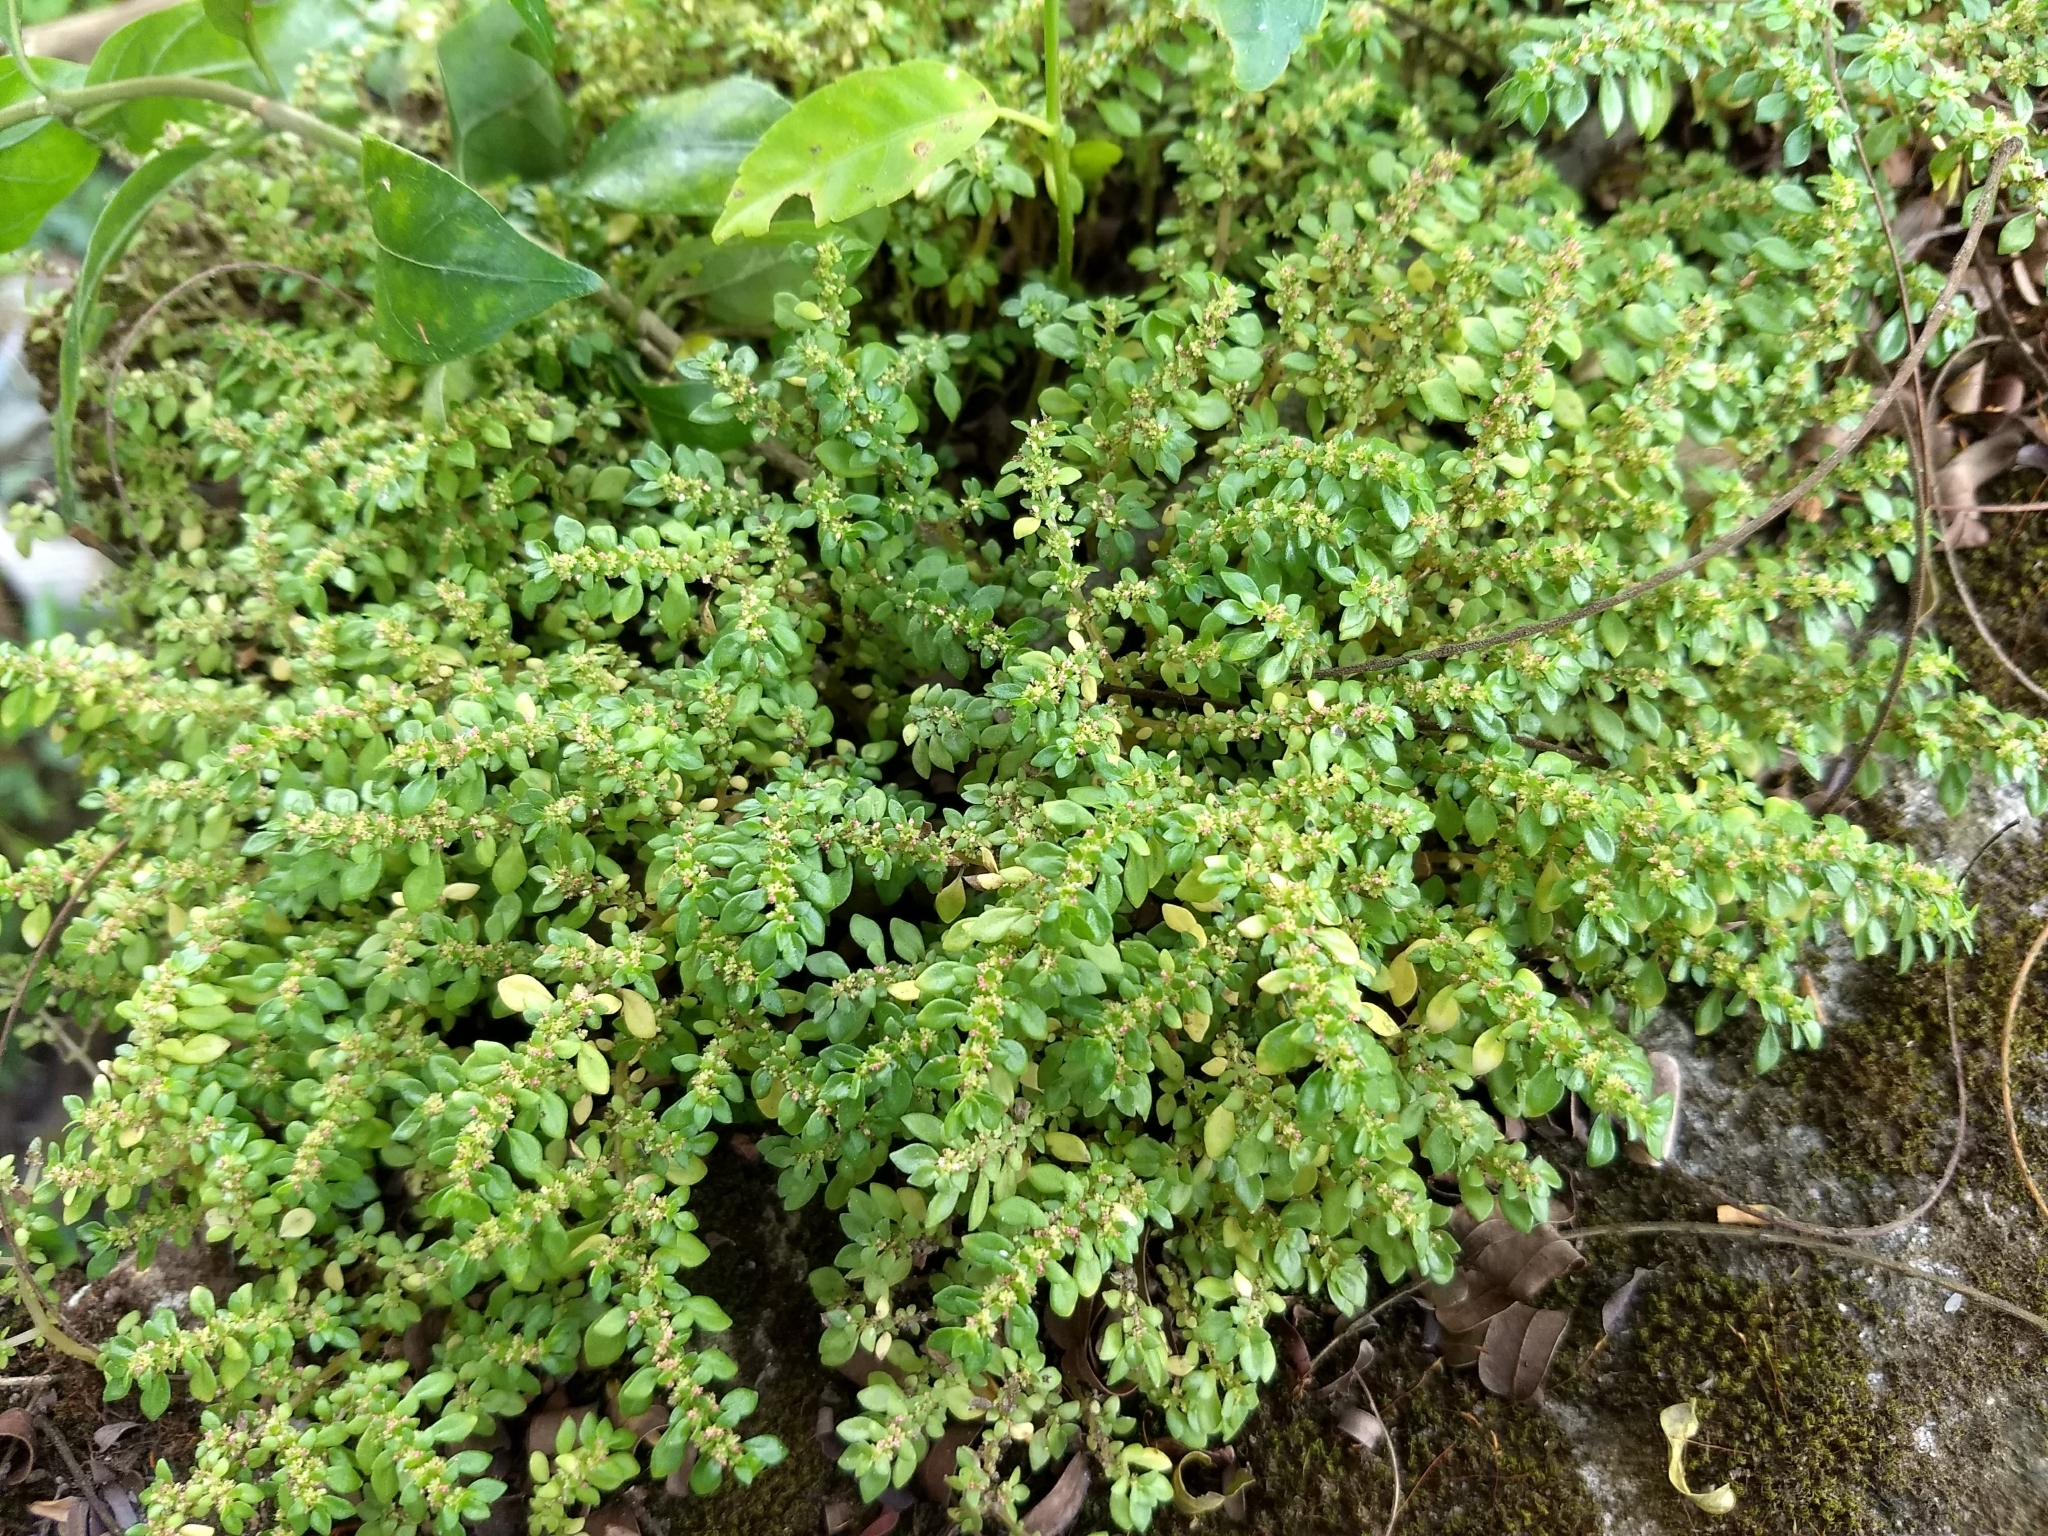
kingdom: Plantae
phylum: Tracheophyta
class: Magnoliopsida
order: Rosales
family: Urticaceae
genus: Pilea
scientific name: Pilea microphylla
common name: Artillery-plant
